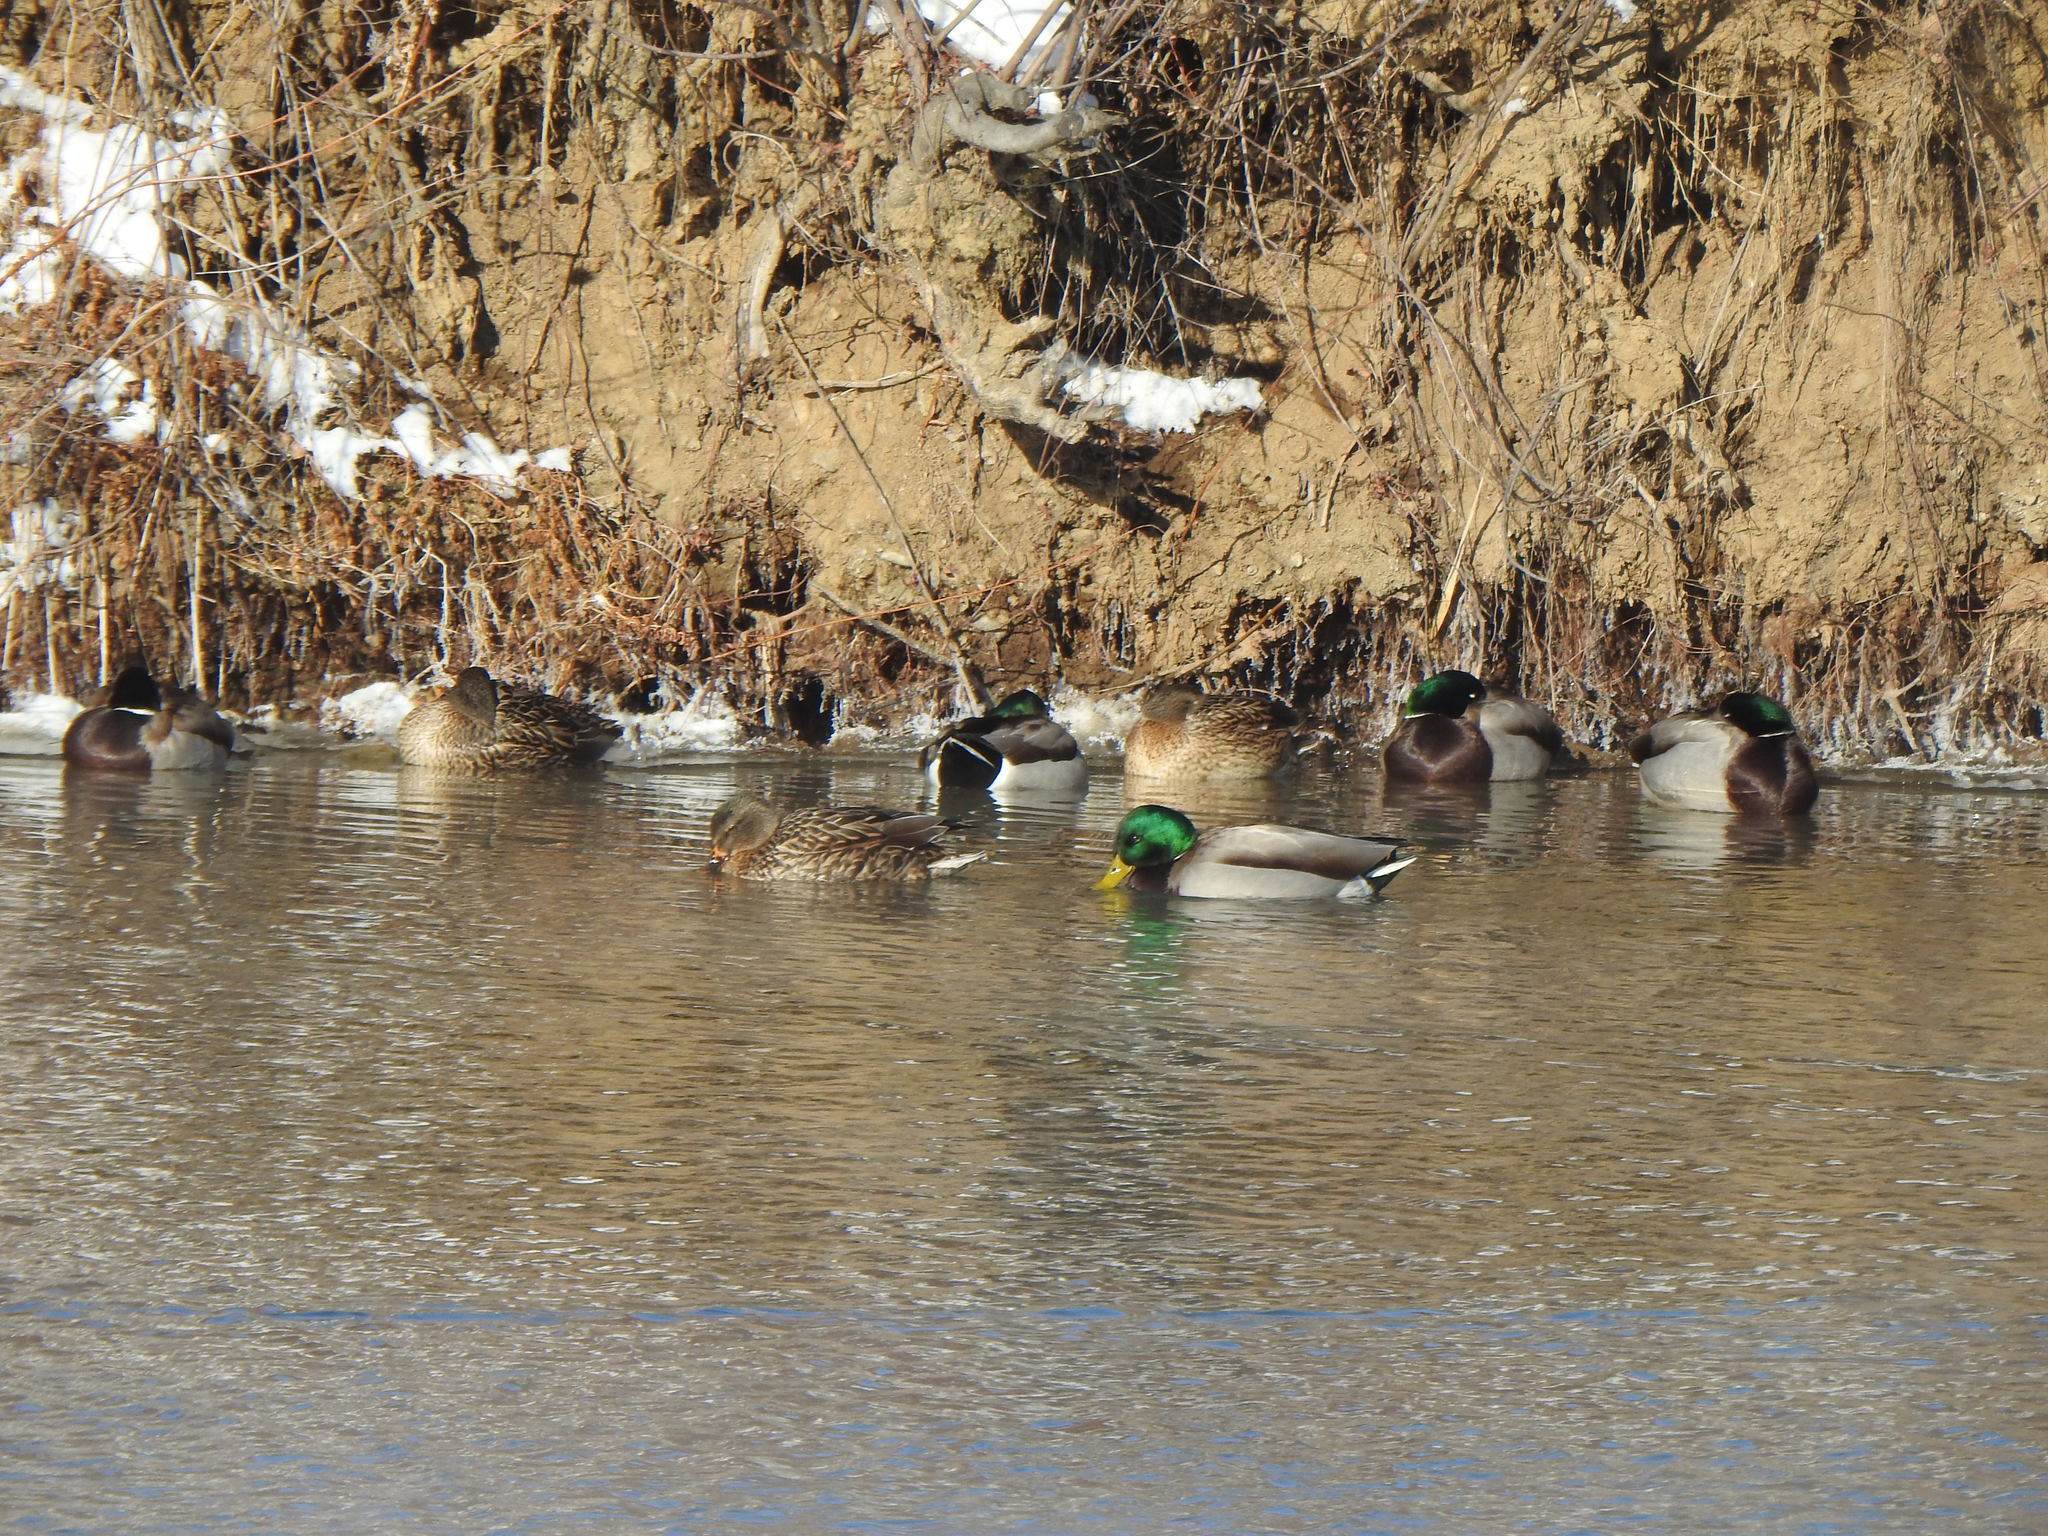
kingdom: Animalia
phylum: Chordata
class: Aves
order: Anseriformes
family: Anatidae
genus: Anas
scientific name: Anas platyrhynchos
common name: Mallard
